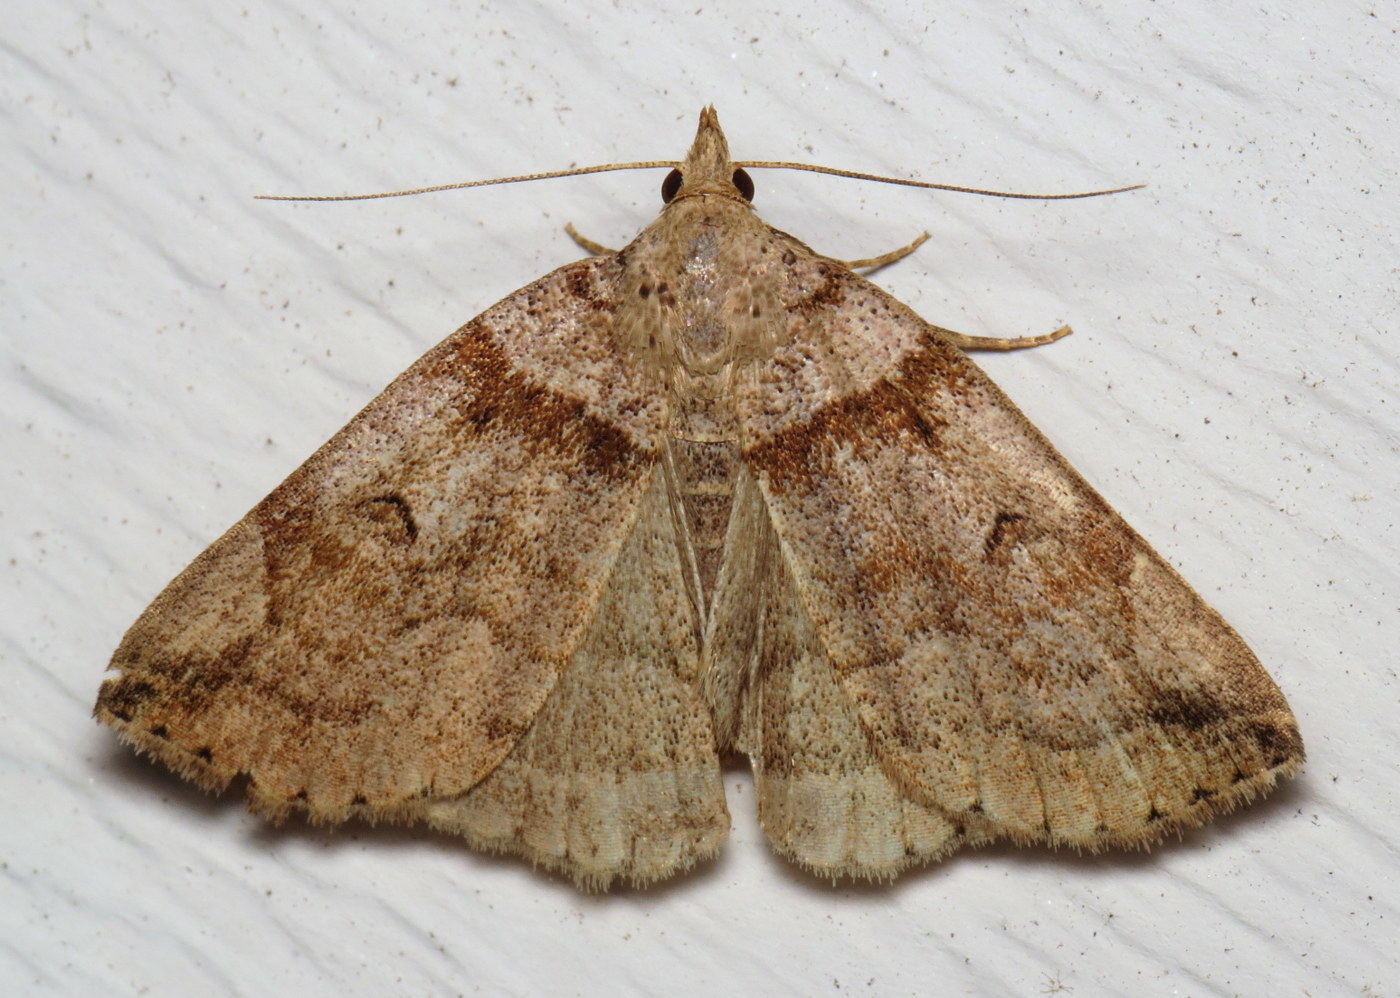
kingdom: Animalia
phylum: Arthropoda
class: Insecta
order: Lepidoptera
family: Erebidae
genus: Zanclognatha
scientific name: Zanclognatha laevigata
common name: Variable fan-foot
